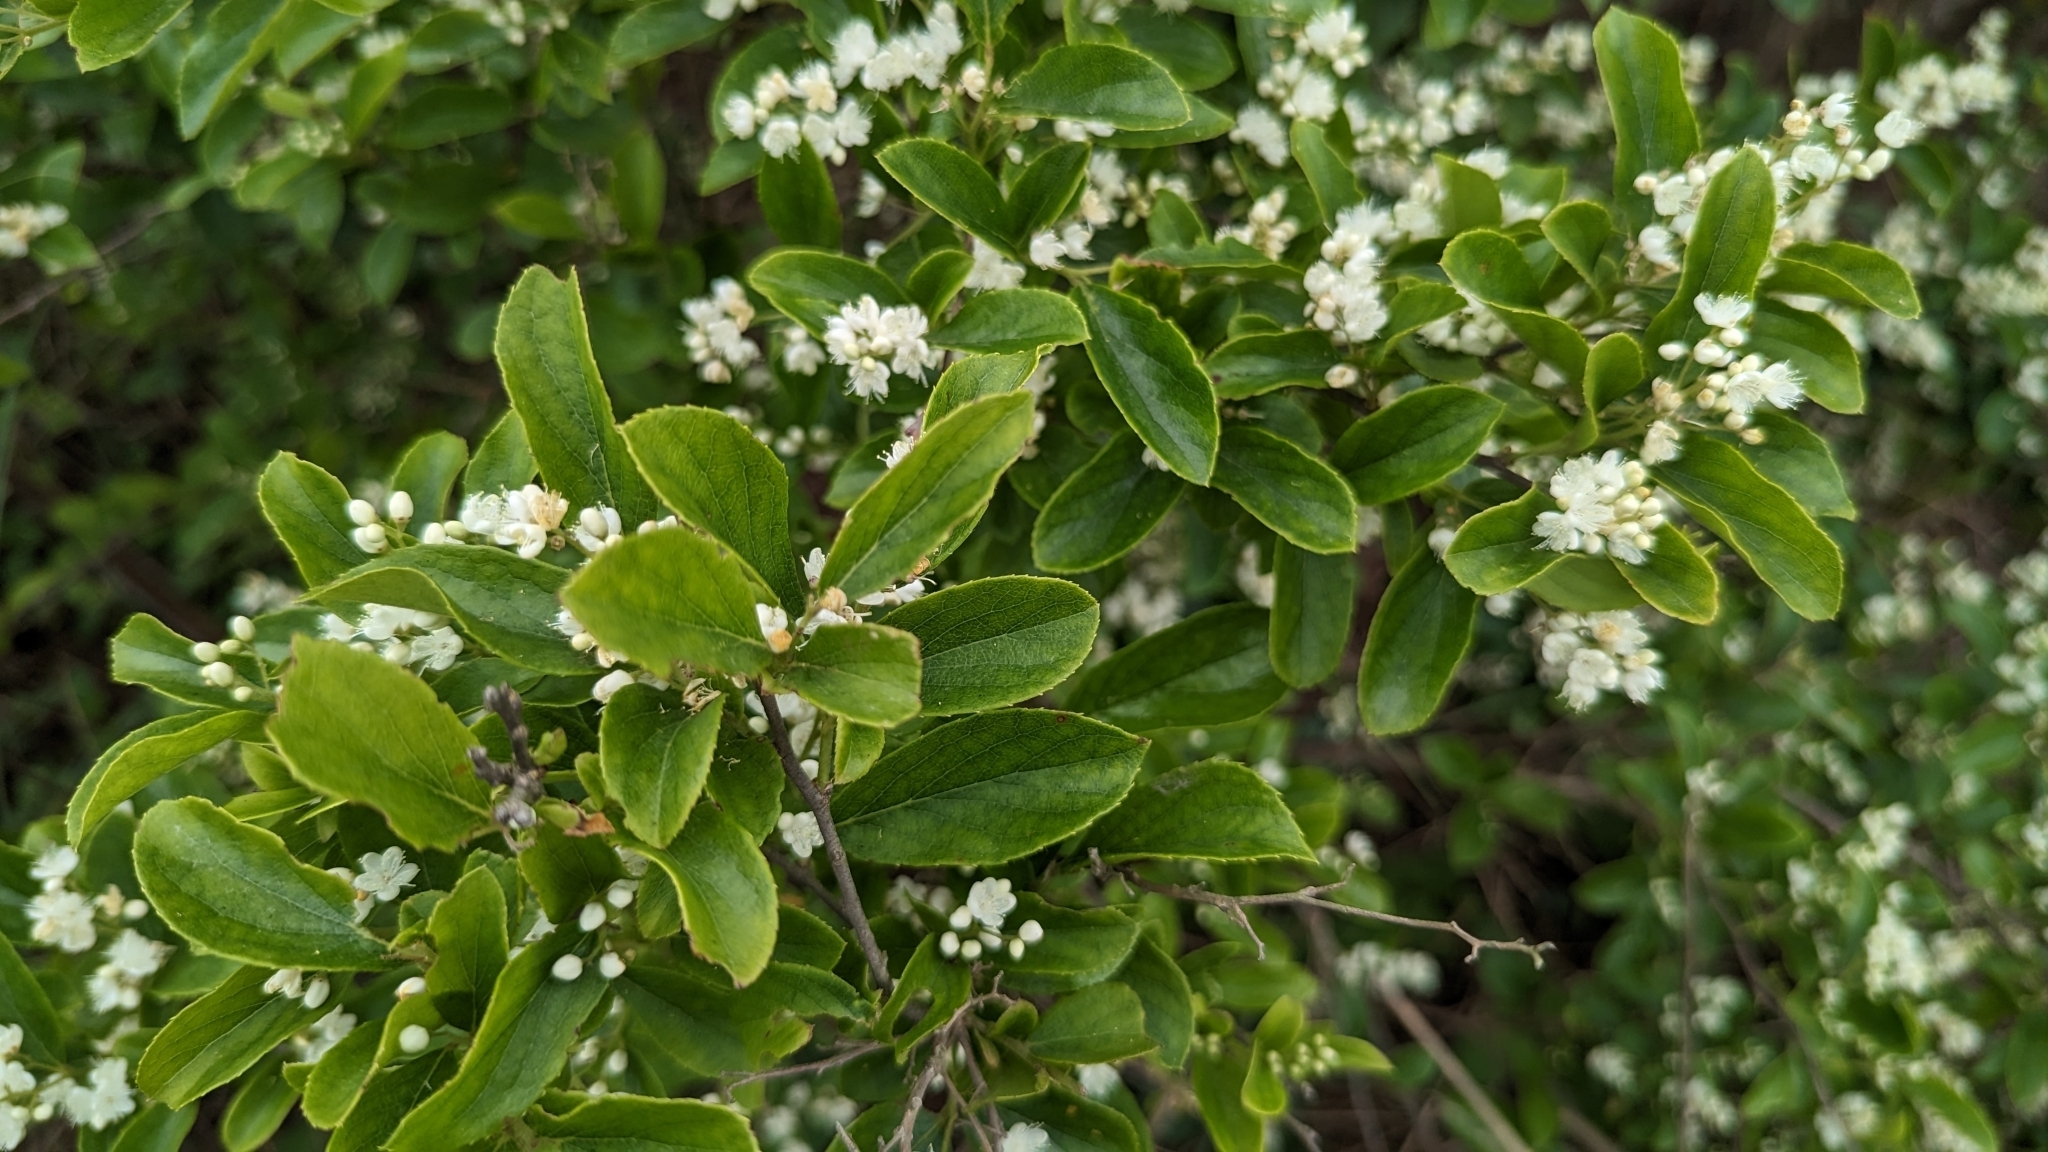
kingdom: Plantae
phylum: Tracheophyta
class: Magnoliopsida
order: Ericales
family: Symplocaceae
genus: Symplocos
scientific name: Symplocos paniculata
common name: Sapphire-berry
